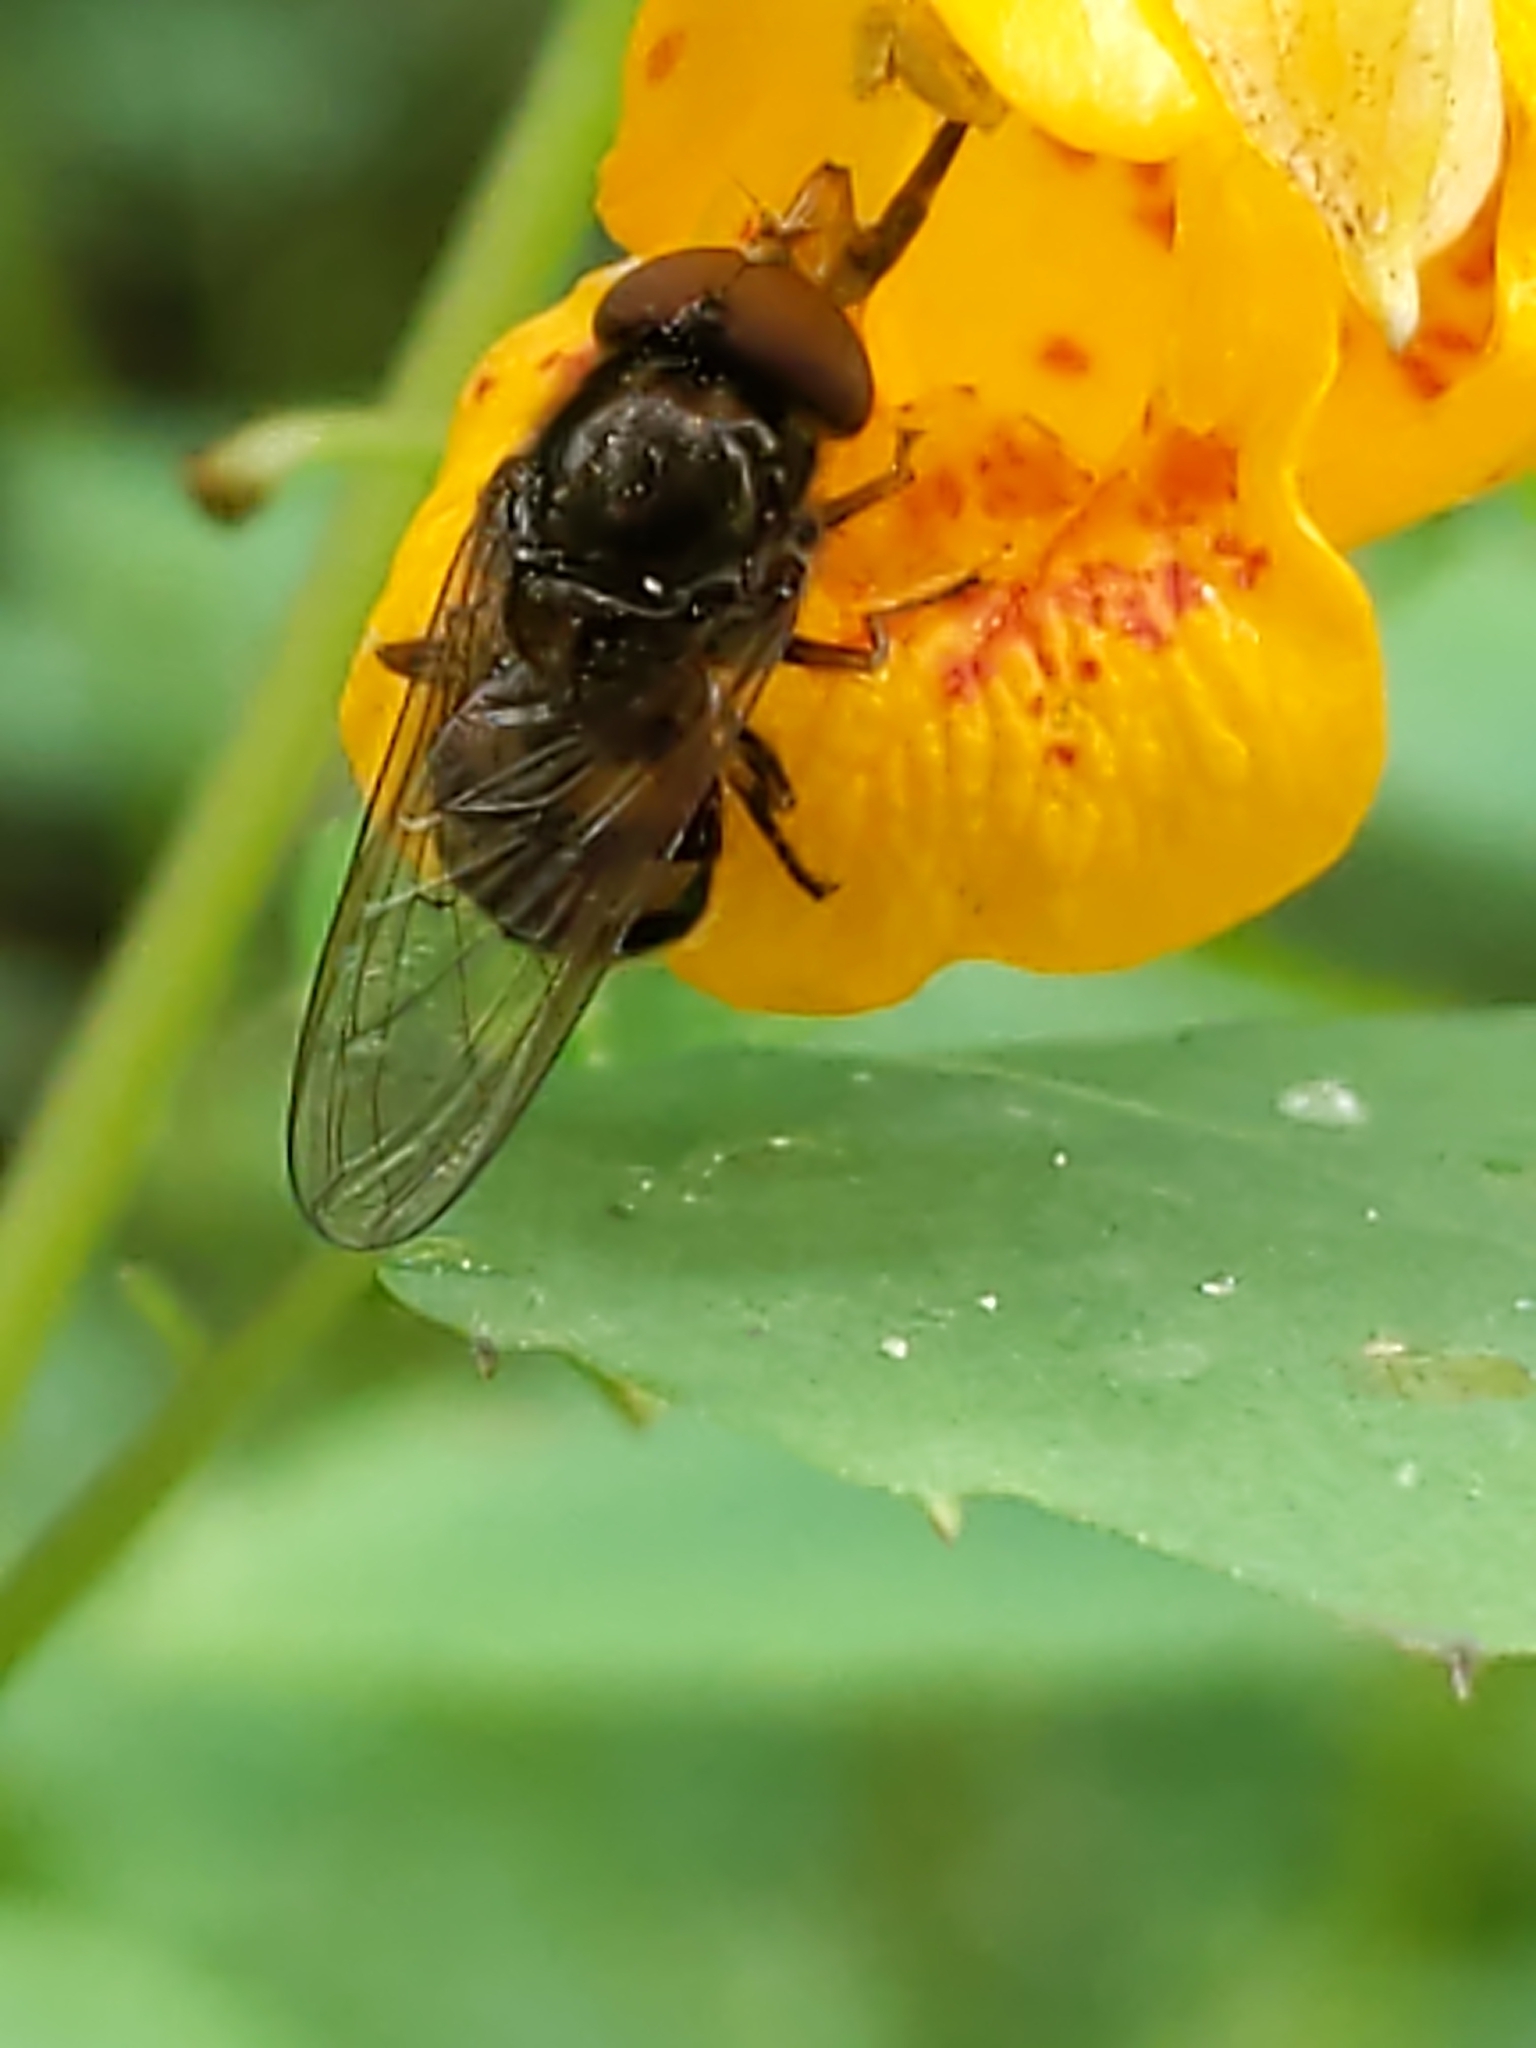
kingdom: Animalia
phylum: Arthropoda
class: Insecta
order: Diptera
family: Syrphidae
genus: Rhingia
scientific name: Rhingia nasica
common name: American snout fly
